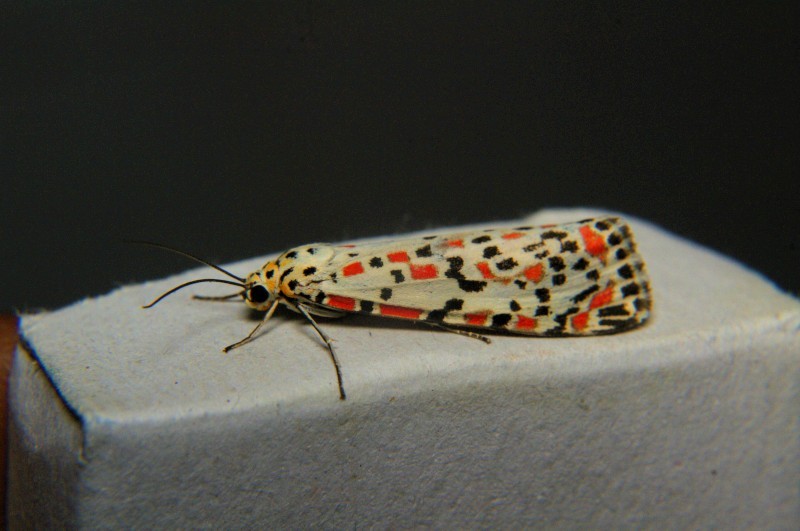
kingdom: Animalia
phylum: Arthropoda
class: Insecta
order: Lepidoptera
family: Erebidae
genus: Utetheisa
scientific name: Utetheisa pulchelloides
